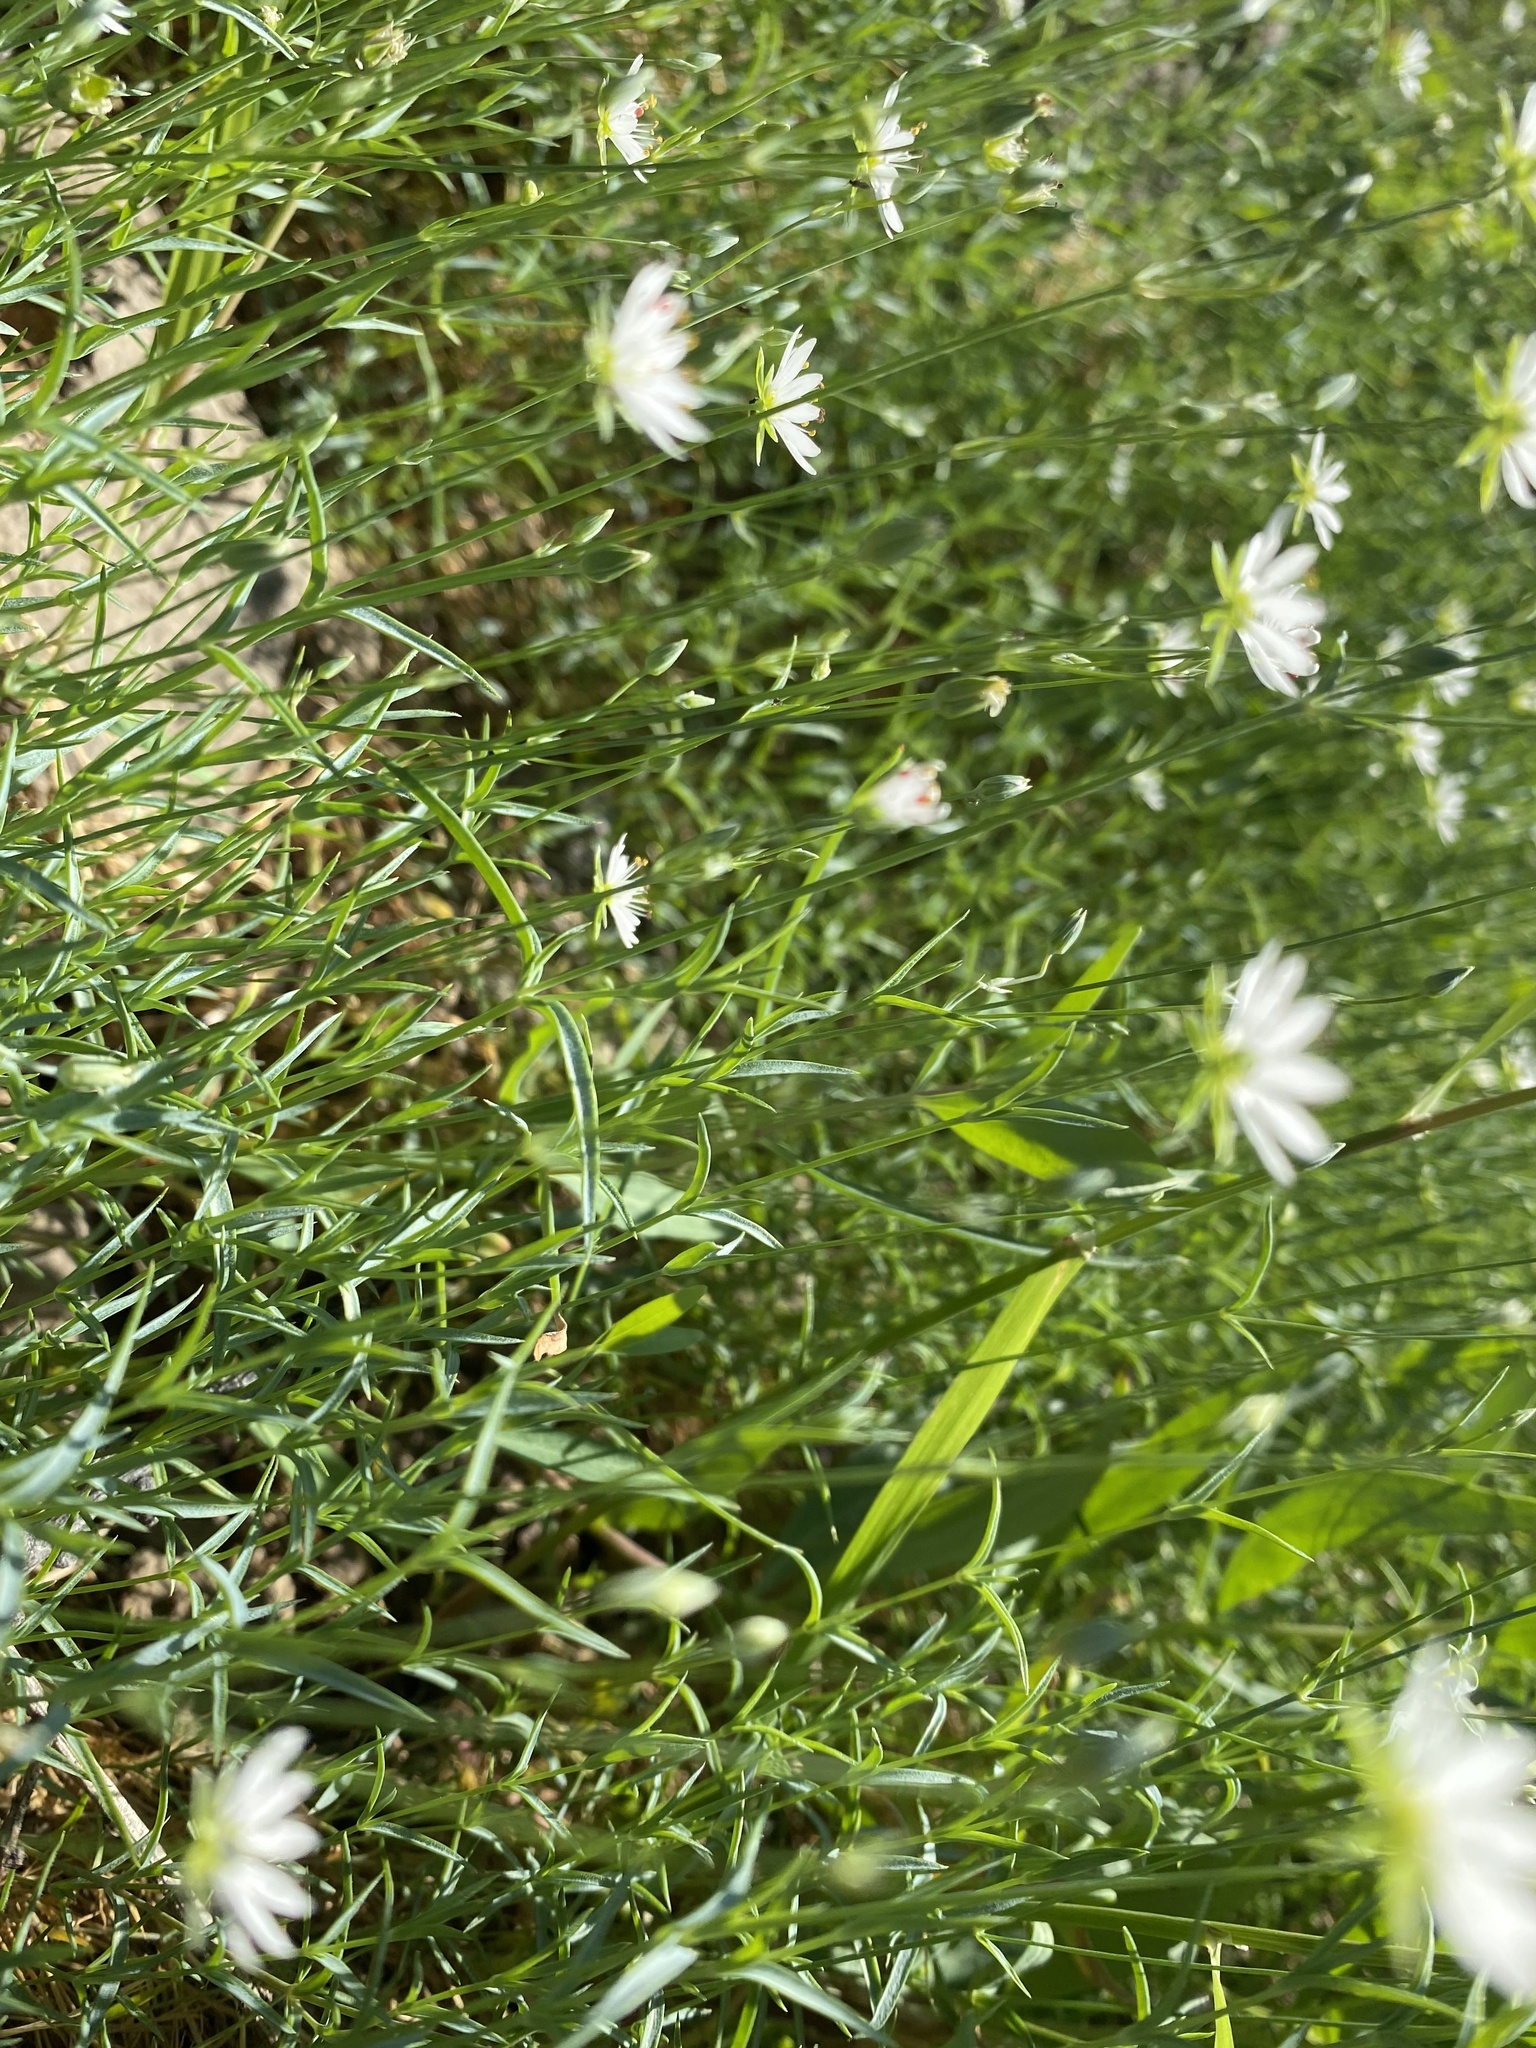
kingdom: Plantae
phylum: Tracheophyta
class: Magnoliopsida
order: Caryophyllales
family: Caryophyllaceae
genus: Stellaria
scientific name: Stellaria peduncularis
